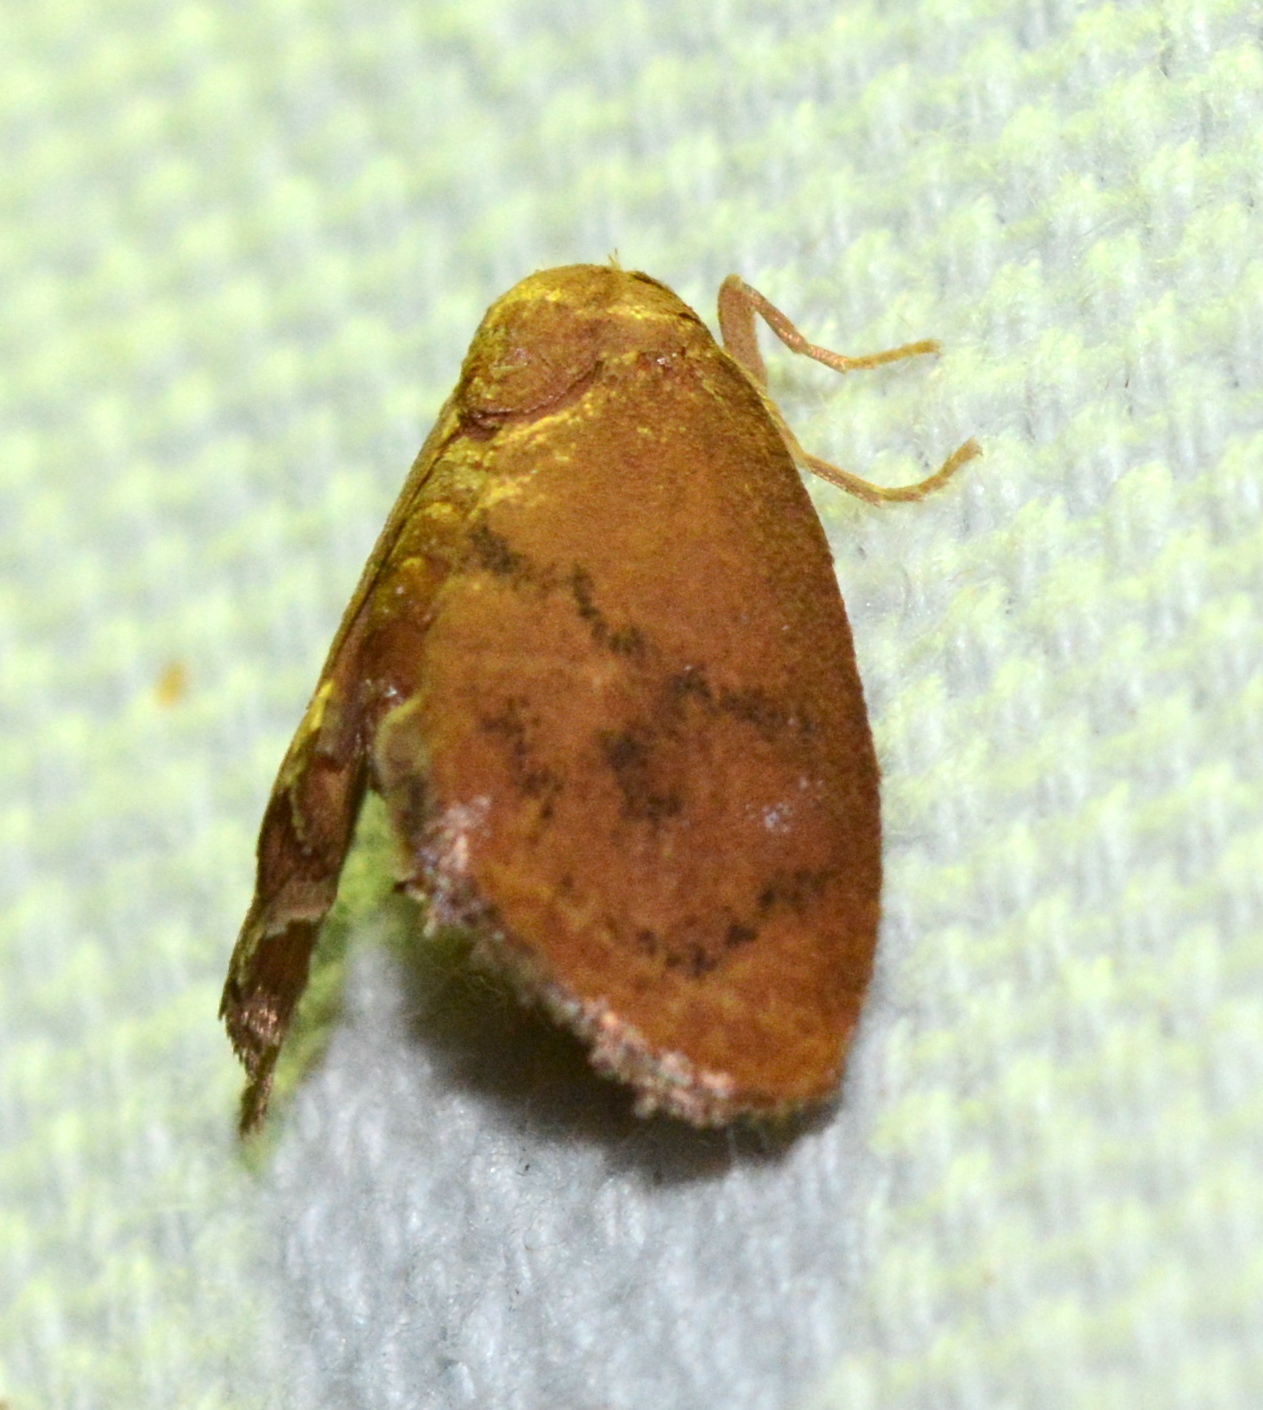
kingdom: Animalia
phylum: Arthropoda
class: Insecta
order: Lepidoptera
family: Limacodidae
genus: Heterogenea
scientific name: Heterogenea shurtleffi
